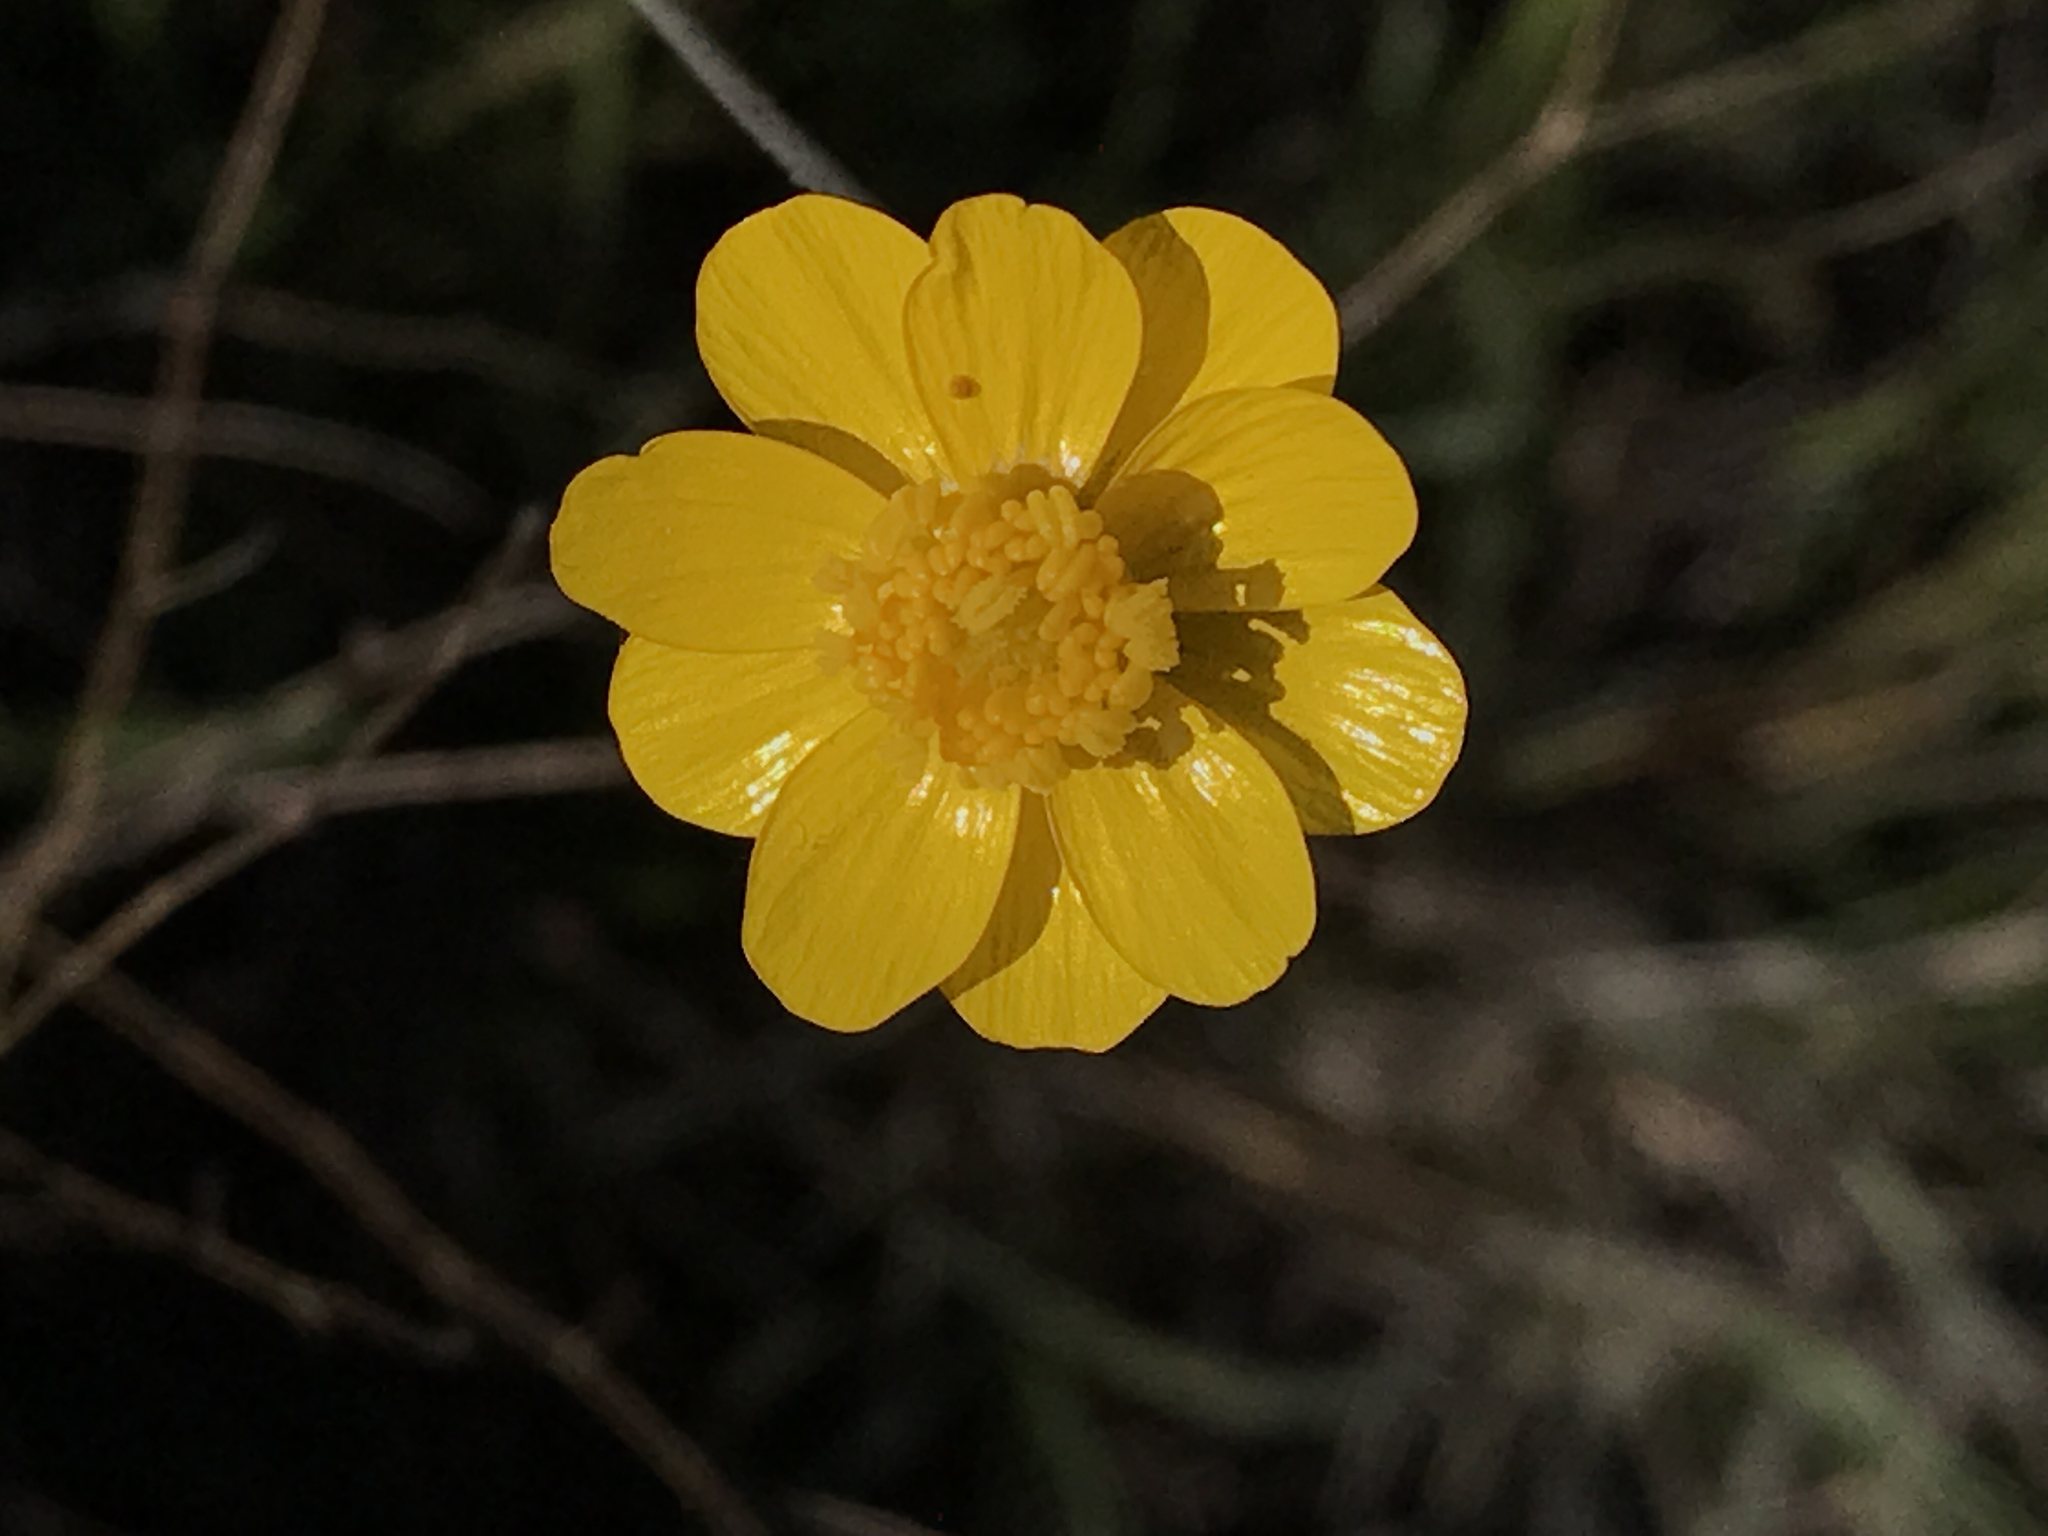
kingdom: Plantae
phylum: Tracheophyta
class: Magnoliopsida
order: Ranunculales
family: Ranunculaceae
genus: Ranunculus
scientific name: Ranunculus californicus
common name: California buttercup
